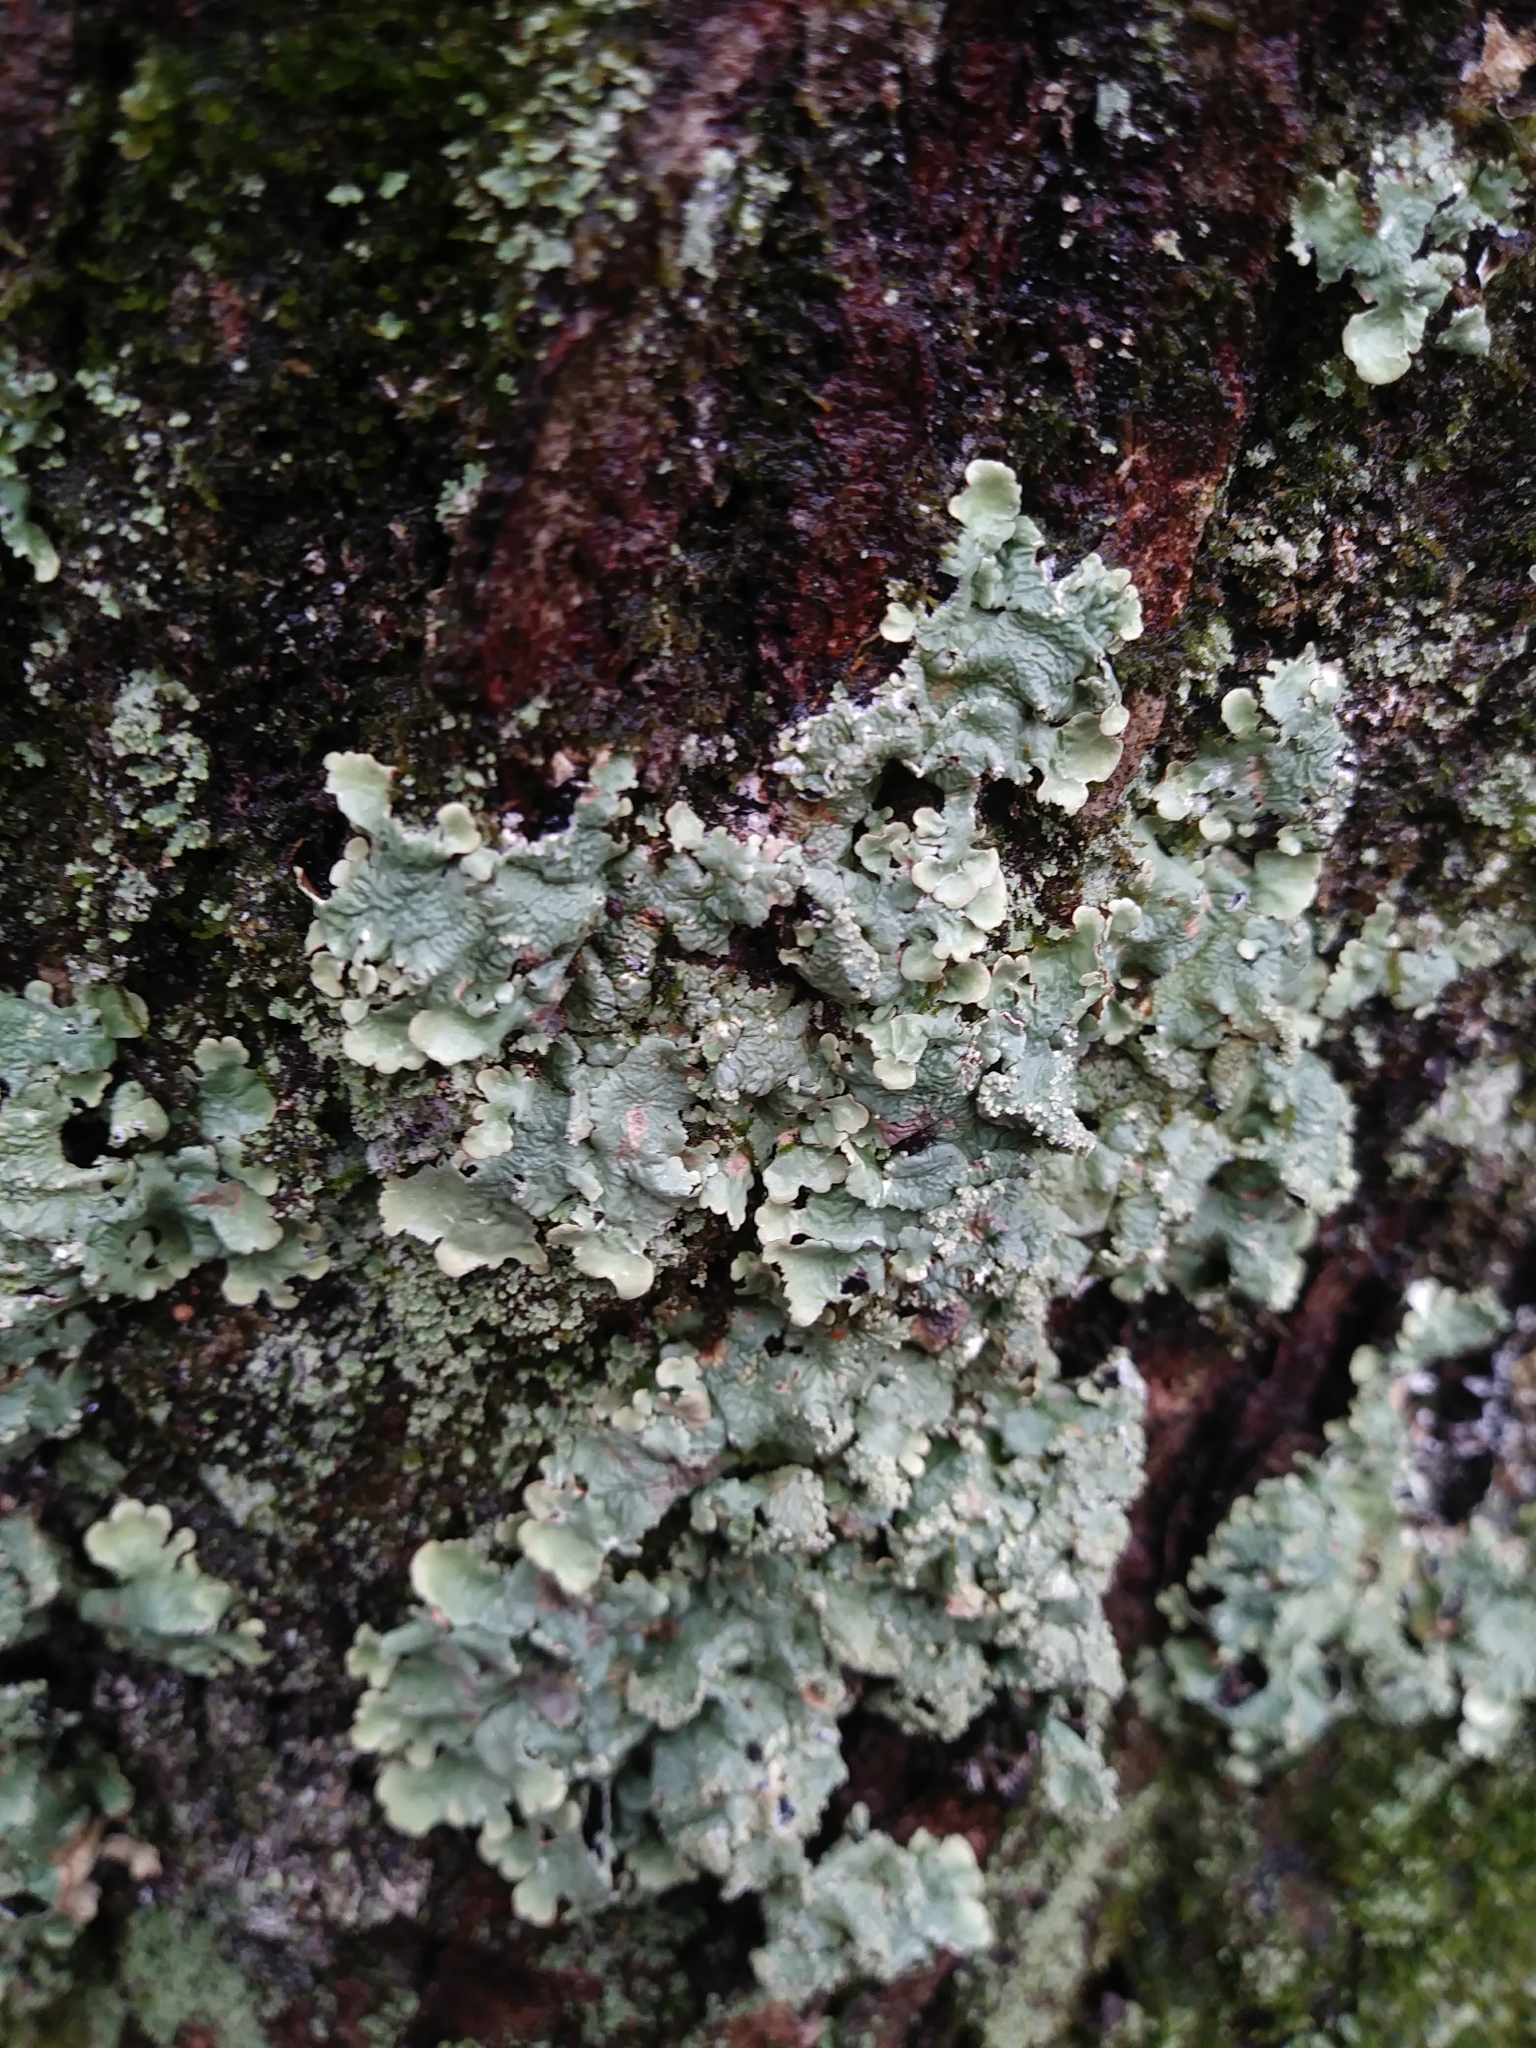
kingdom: Fungi
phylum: Ascomycota
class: Lecanoromycetes
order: Lecanorales
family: Parmeliaceae
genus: Flavoparmelia
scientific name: Flavoparmelia caperata
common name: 40-mile per hour lichen
